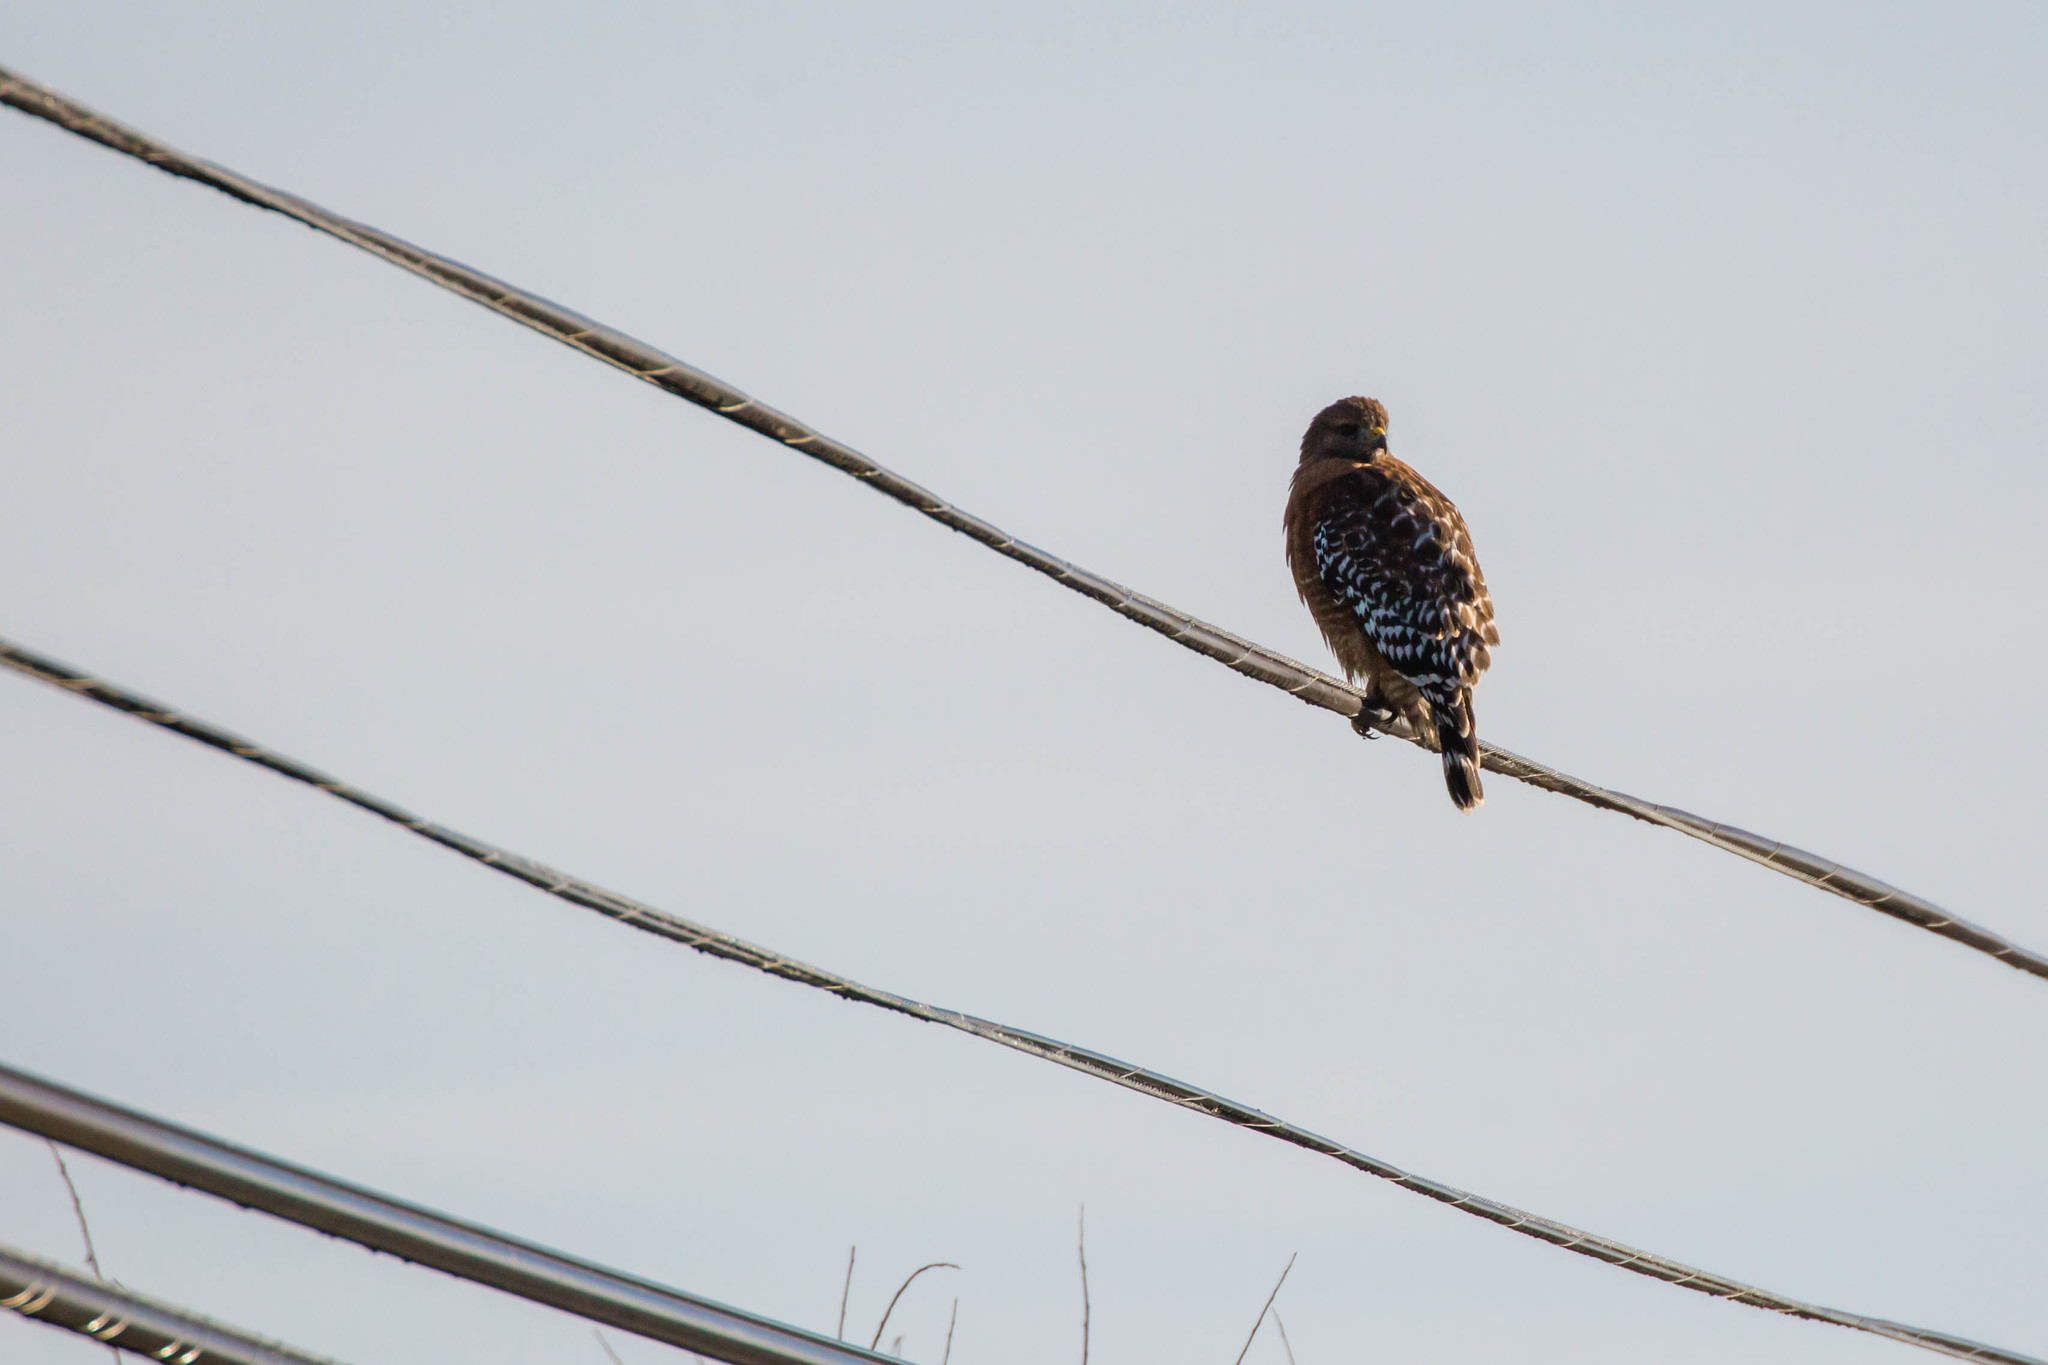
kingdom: Animalia
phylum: Chordata
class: Aves
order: Accipitriformes
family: Accipitridae
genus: Buteo
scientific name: Buteo lineatus
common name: Red-shouldered hawk
